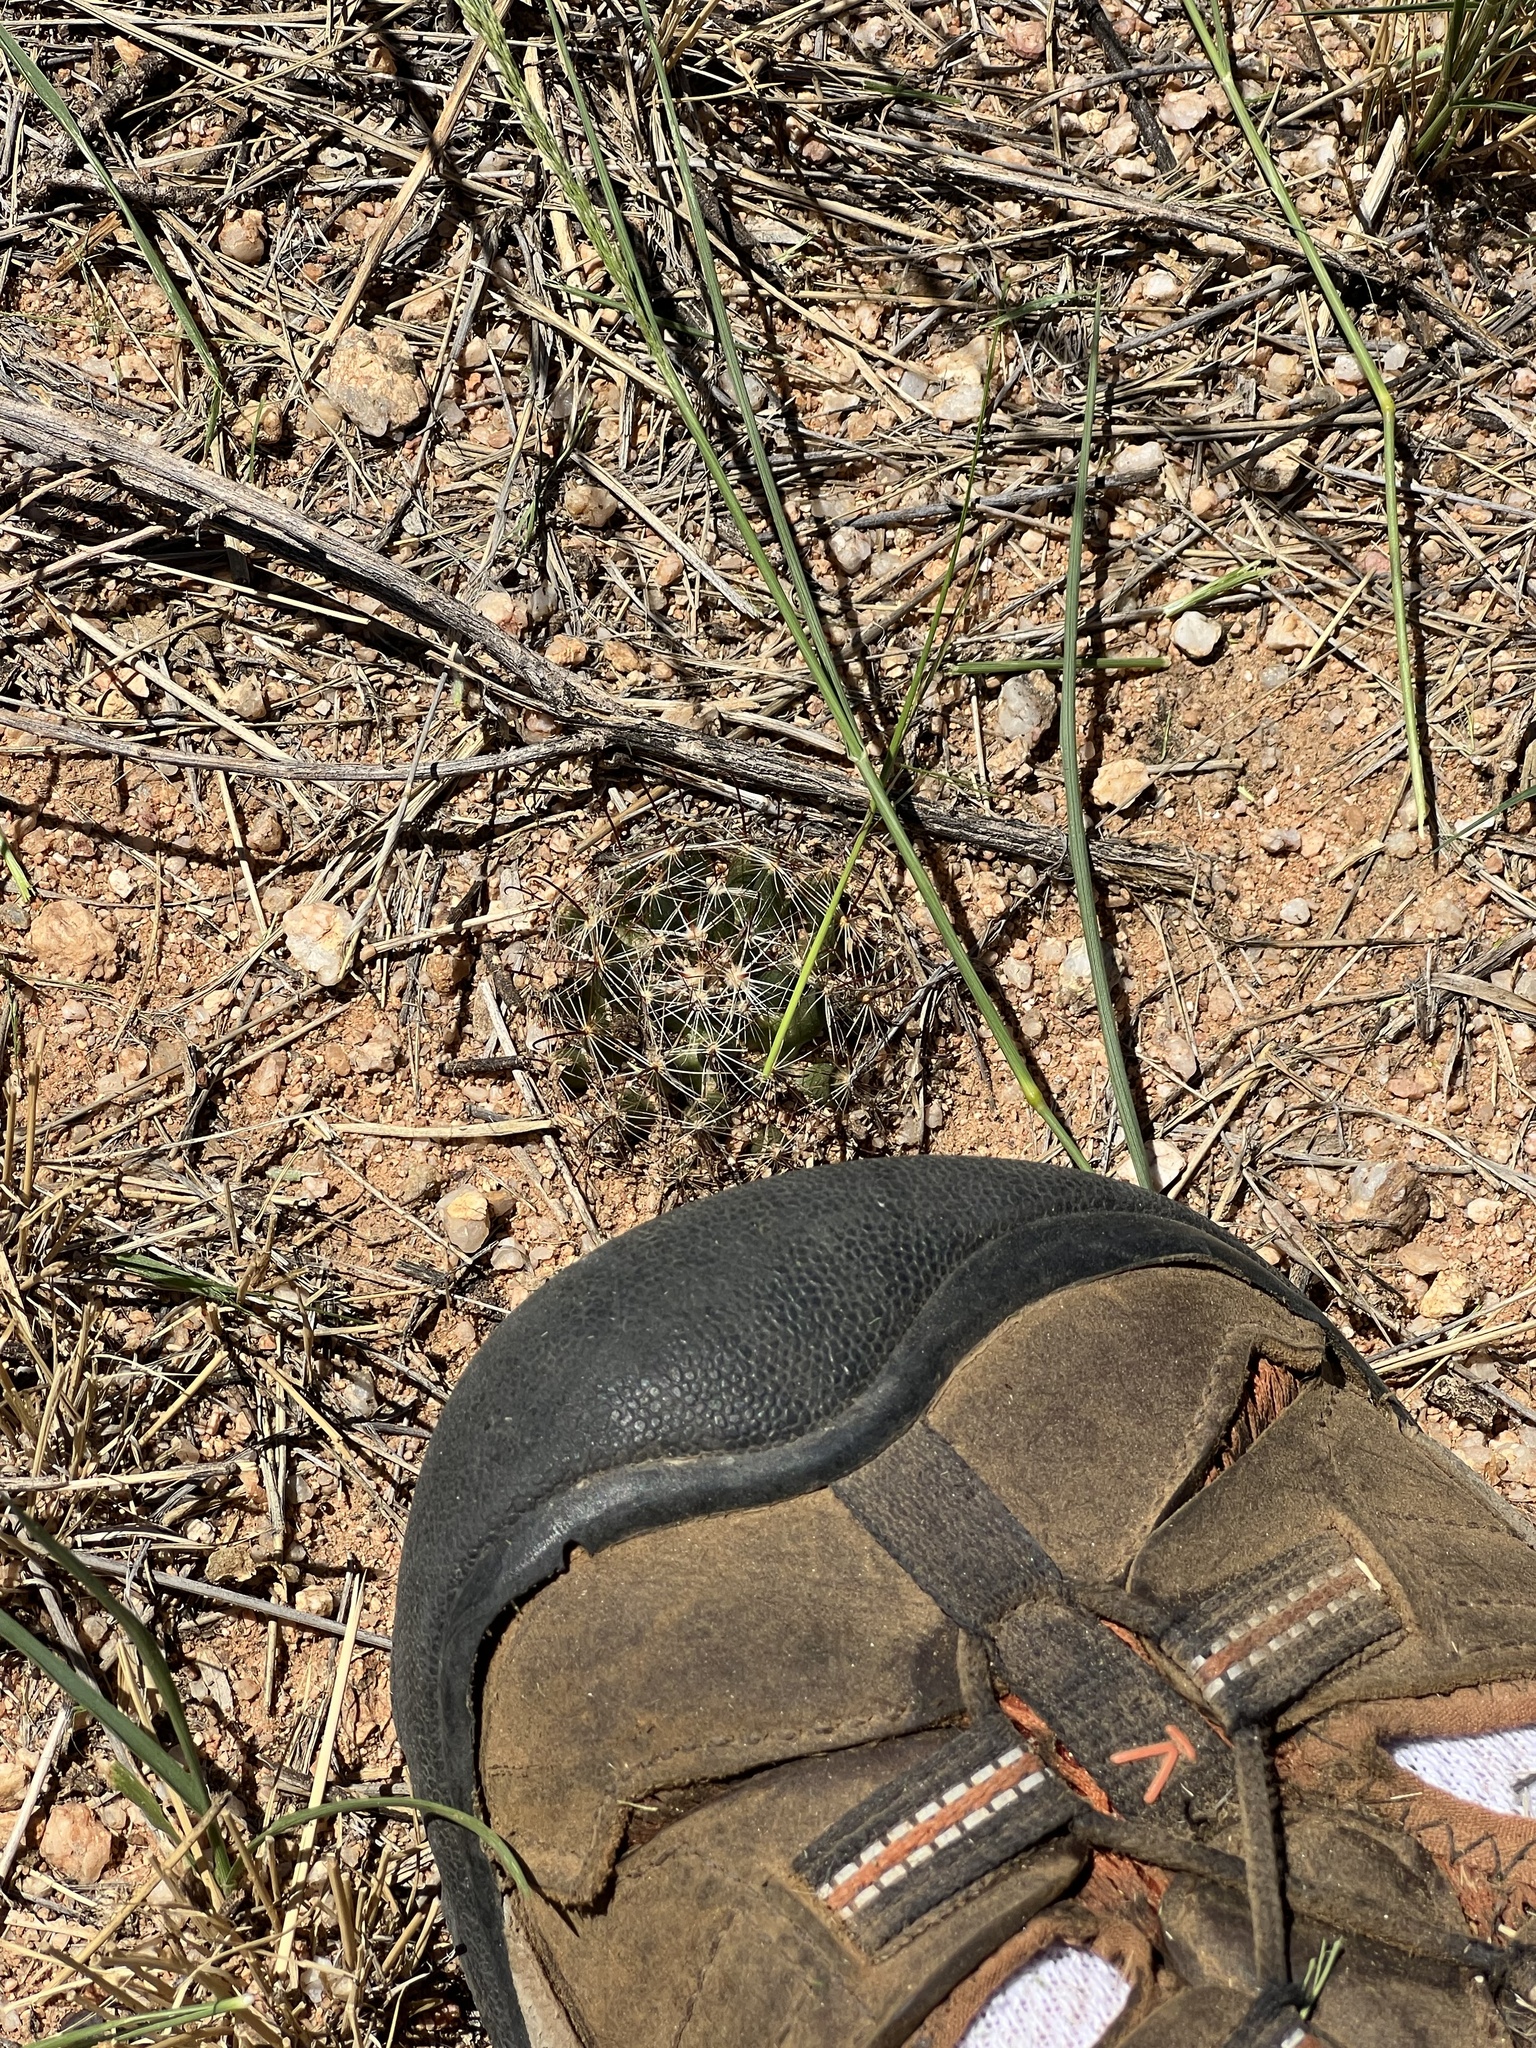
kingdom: Plantae
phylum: Tracheophyta
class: Magnoliopsida
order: Caryophyllales
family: Cactaceae
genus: Cochemiea
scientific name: Cochemiea wrightii
